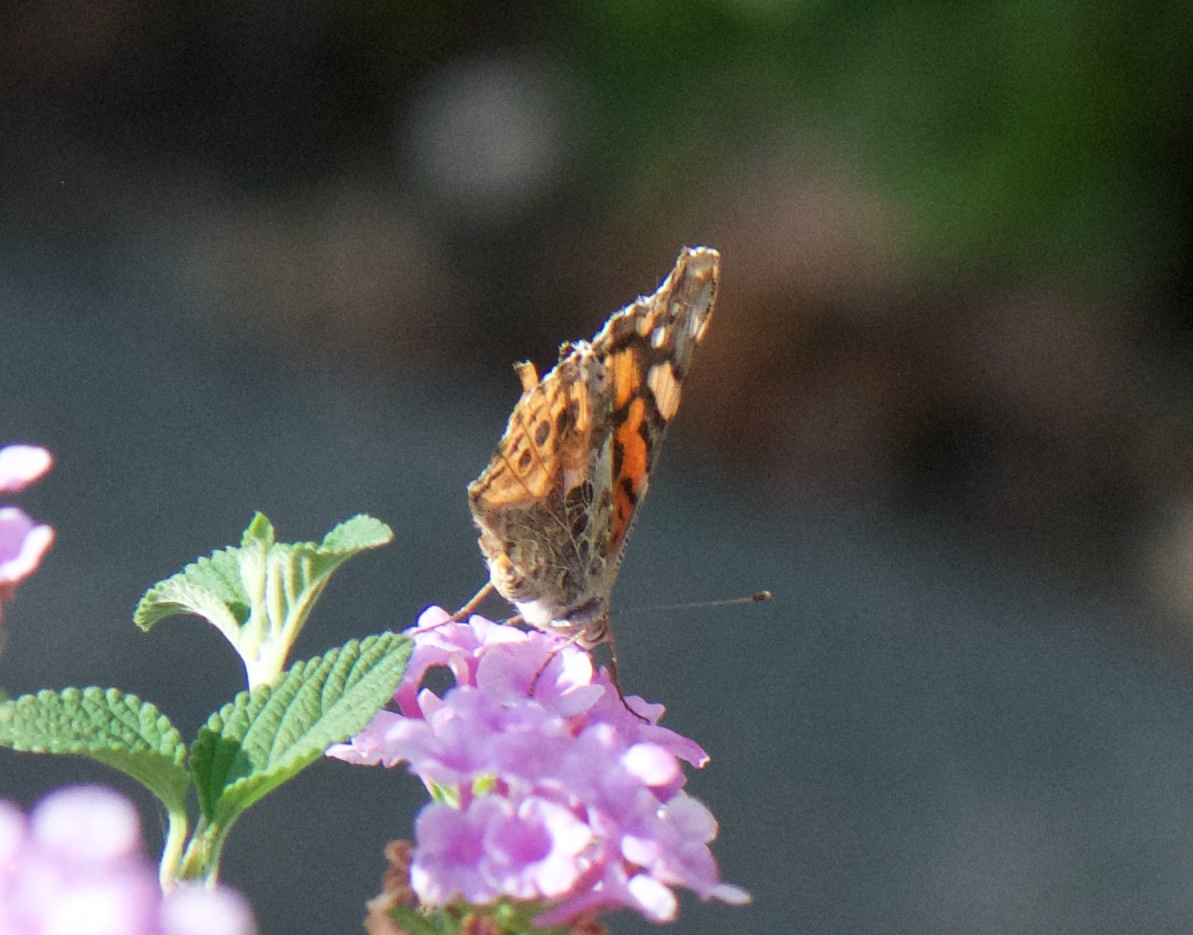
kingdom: Animalia
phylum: Arthropoda
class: Insecta
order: Lepidoptera
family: Nymphalidae
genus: Vanessa
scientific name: Vanessa annabella
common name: West coast lady
